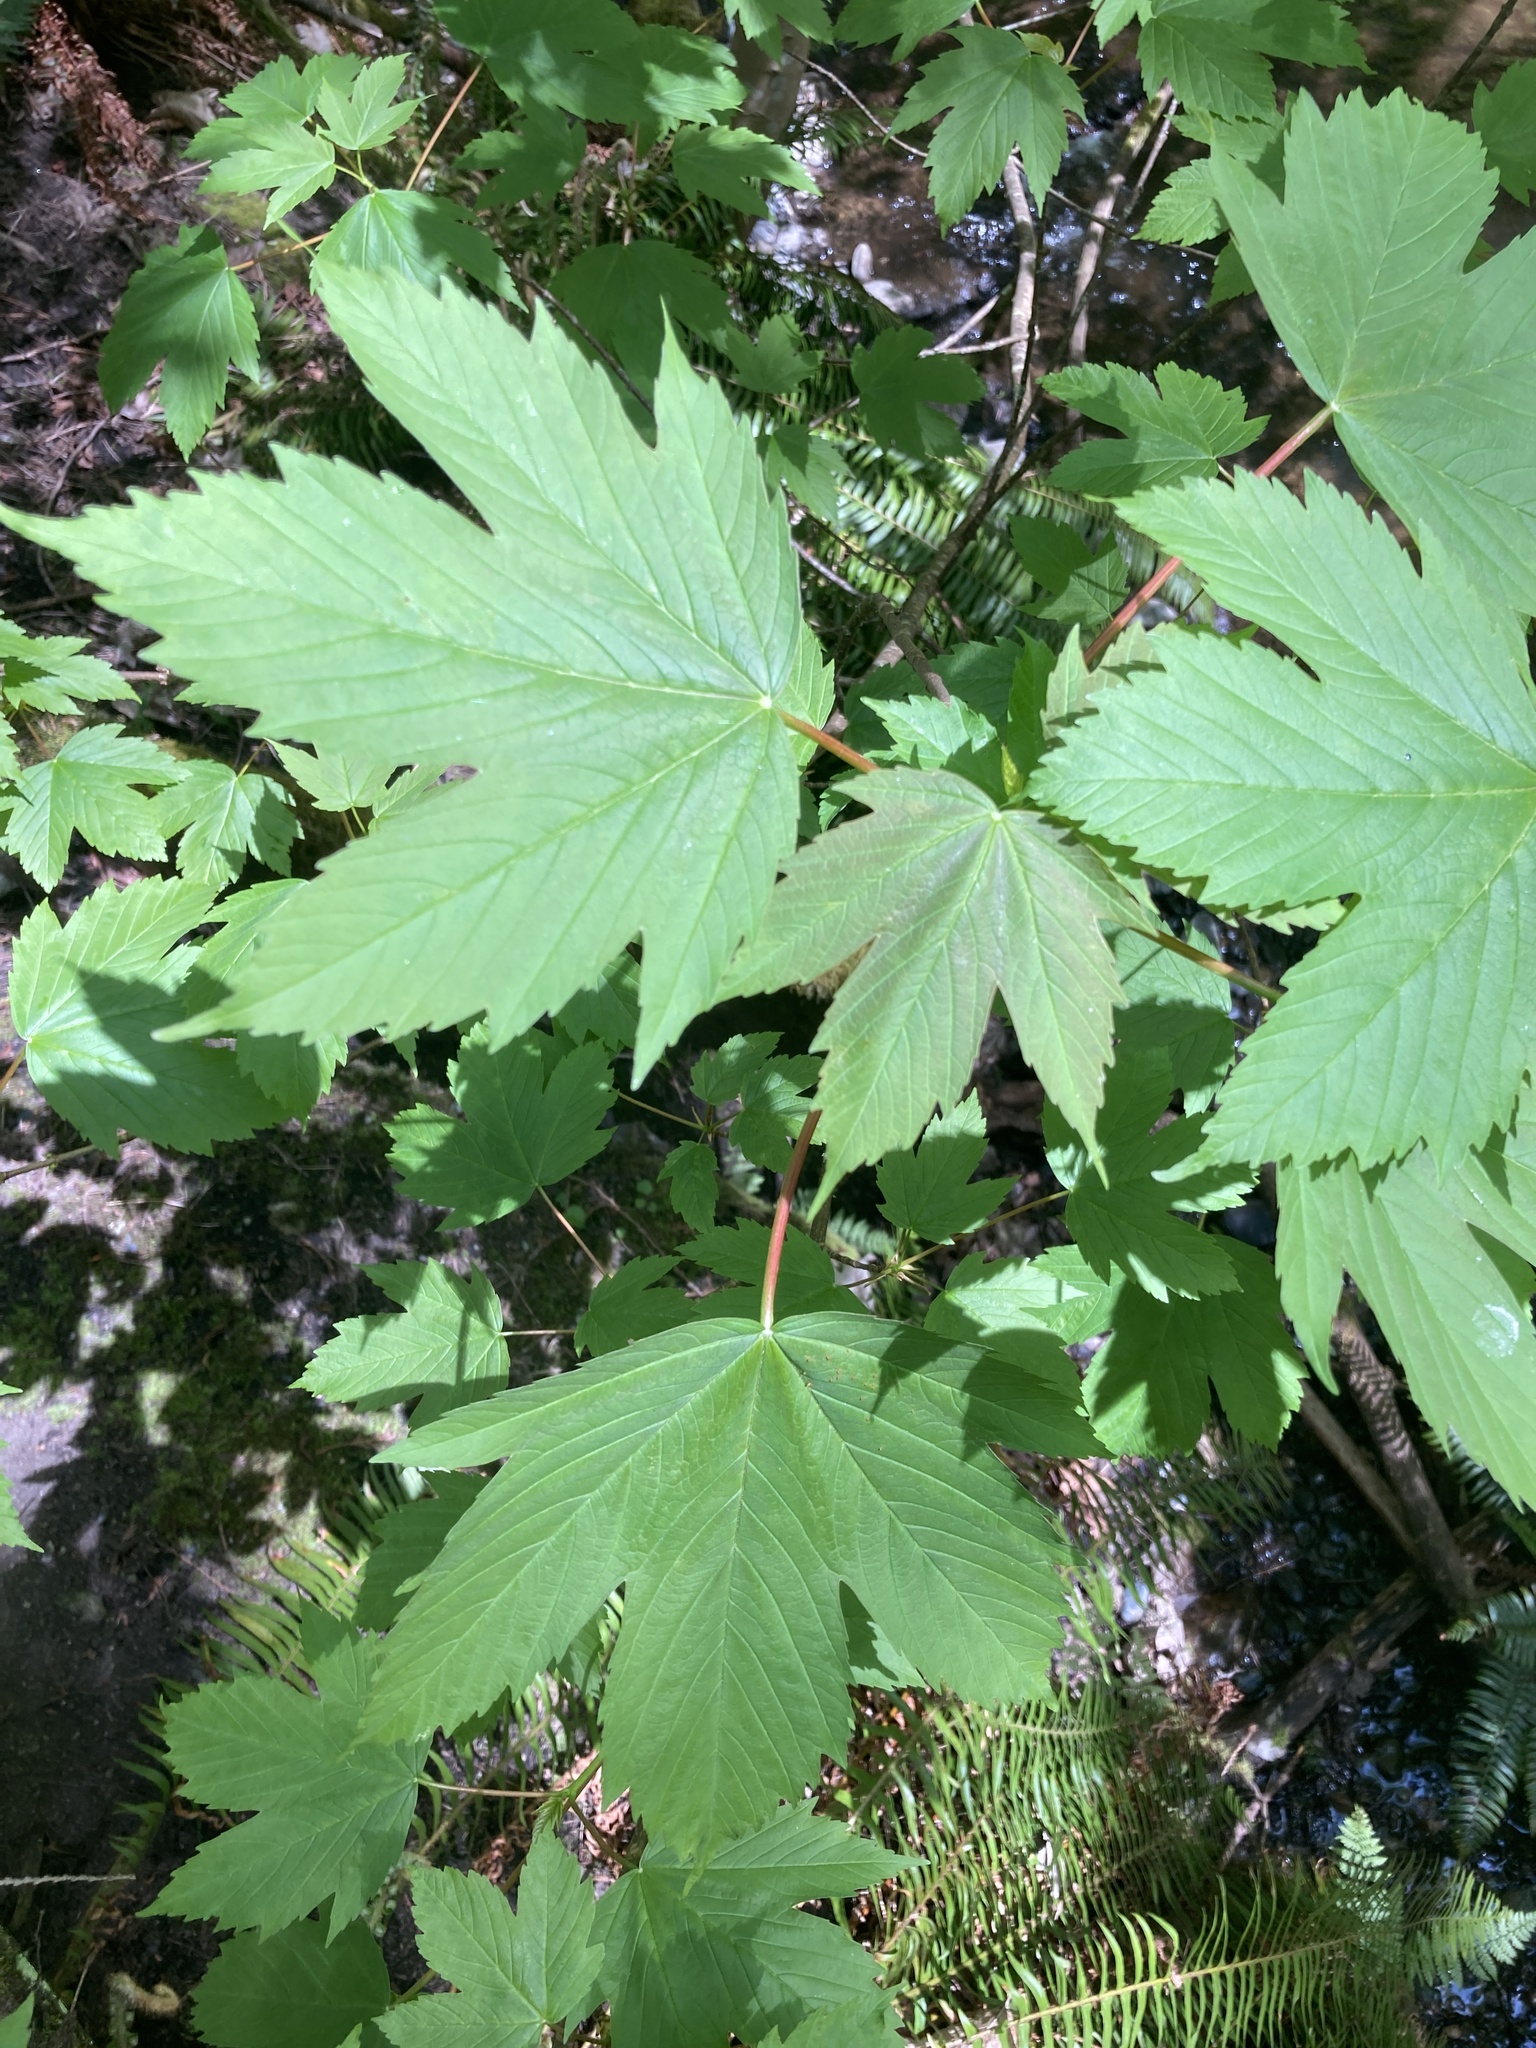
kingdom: Plantae
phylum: Tracheophyta
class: Magnoliopsida
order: Sapindales
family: Sapindaceae
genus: Acer
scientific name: Acer pseudoplatanus
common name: Sycamore
